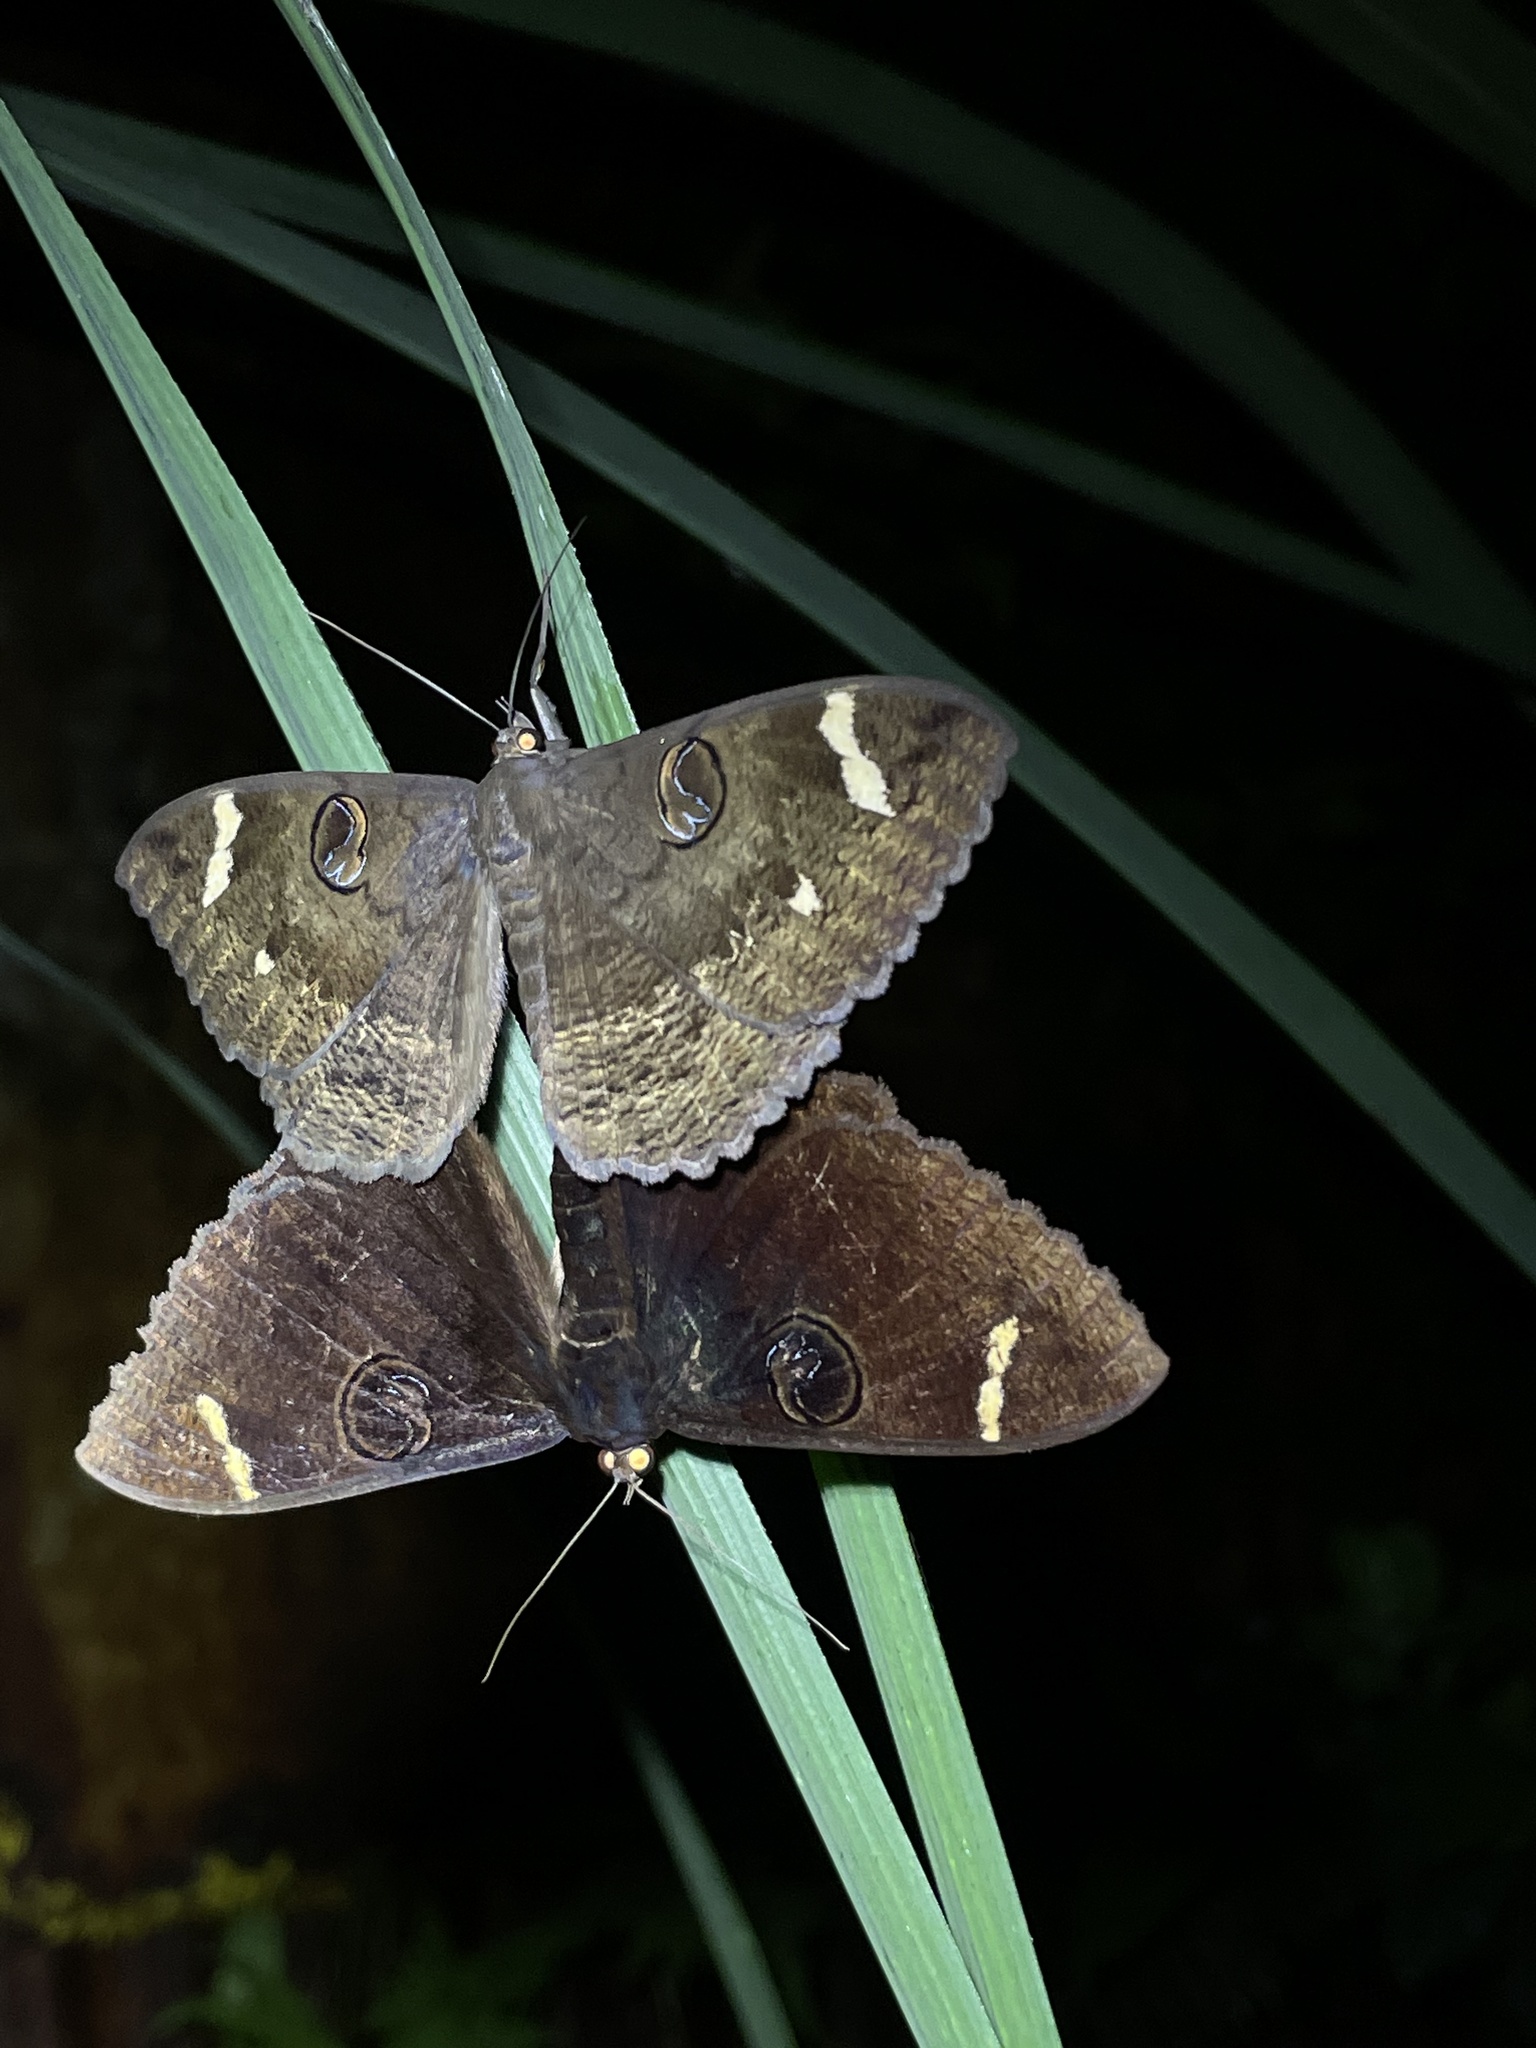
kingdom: Animalia
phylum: Arthropoda
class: Insecta
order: Lepidoptera
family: Erebidae
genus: Erebus
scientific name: Erebus hieroglyphica
